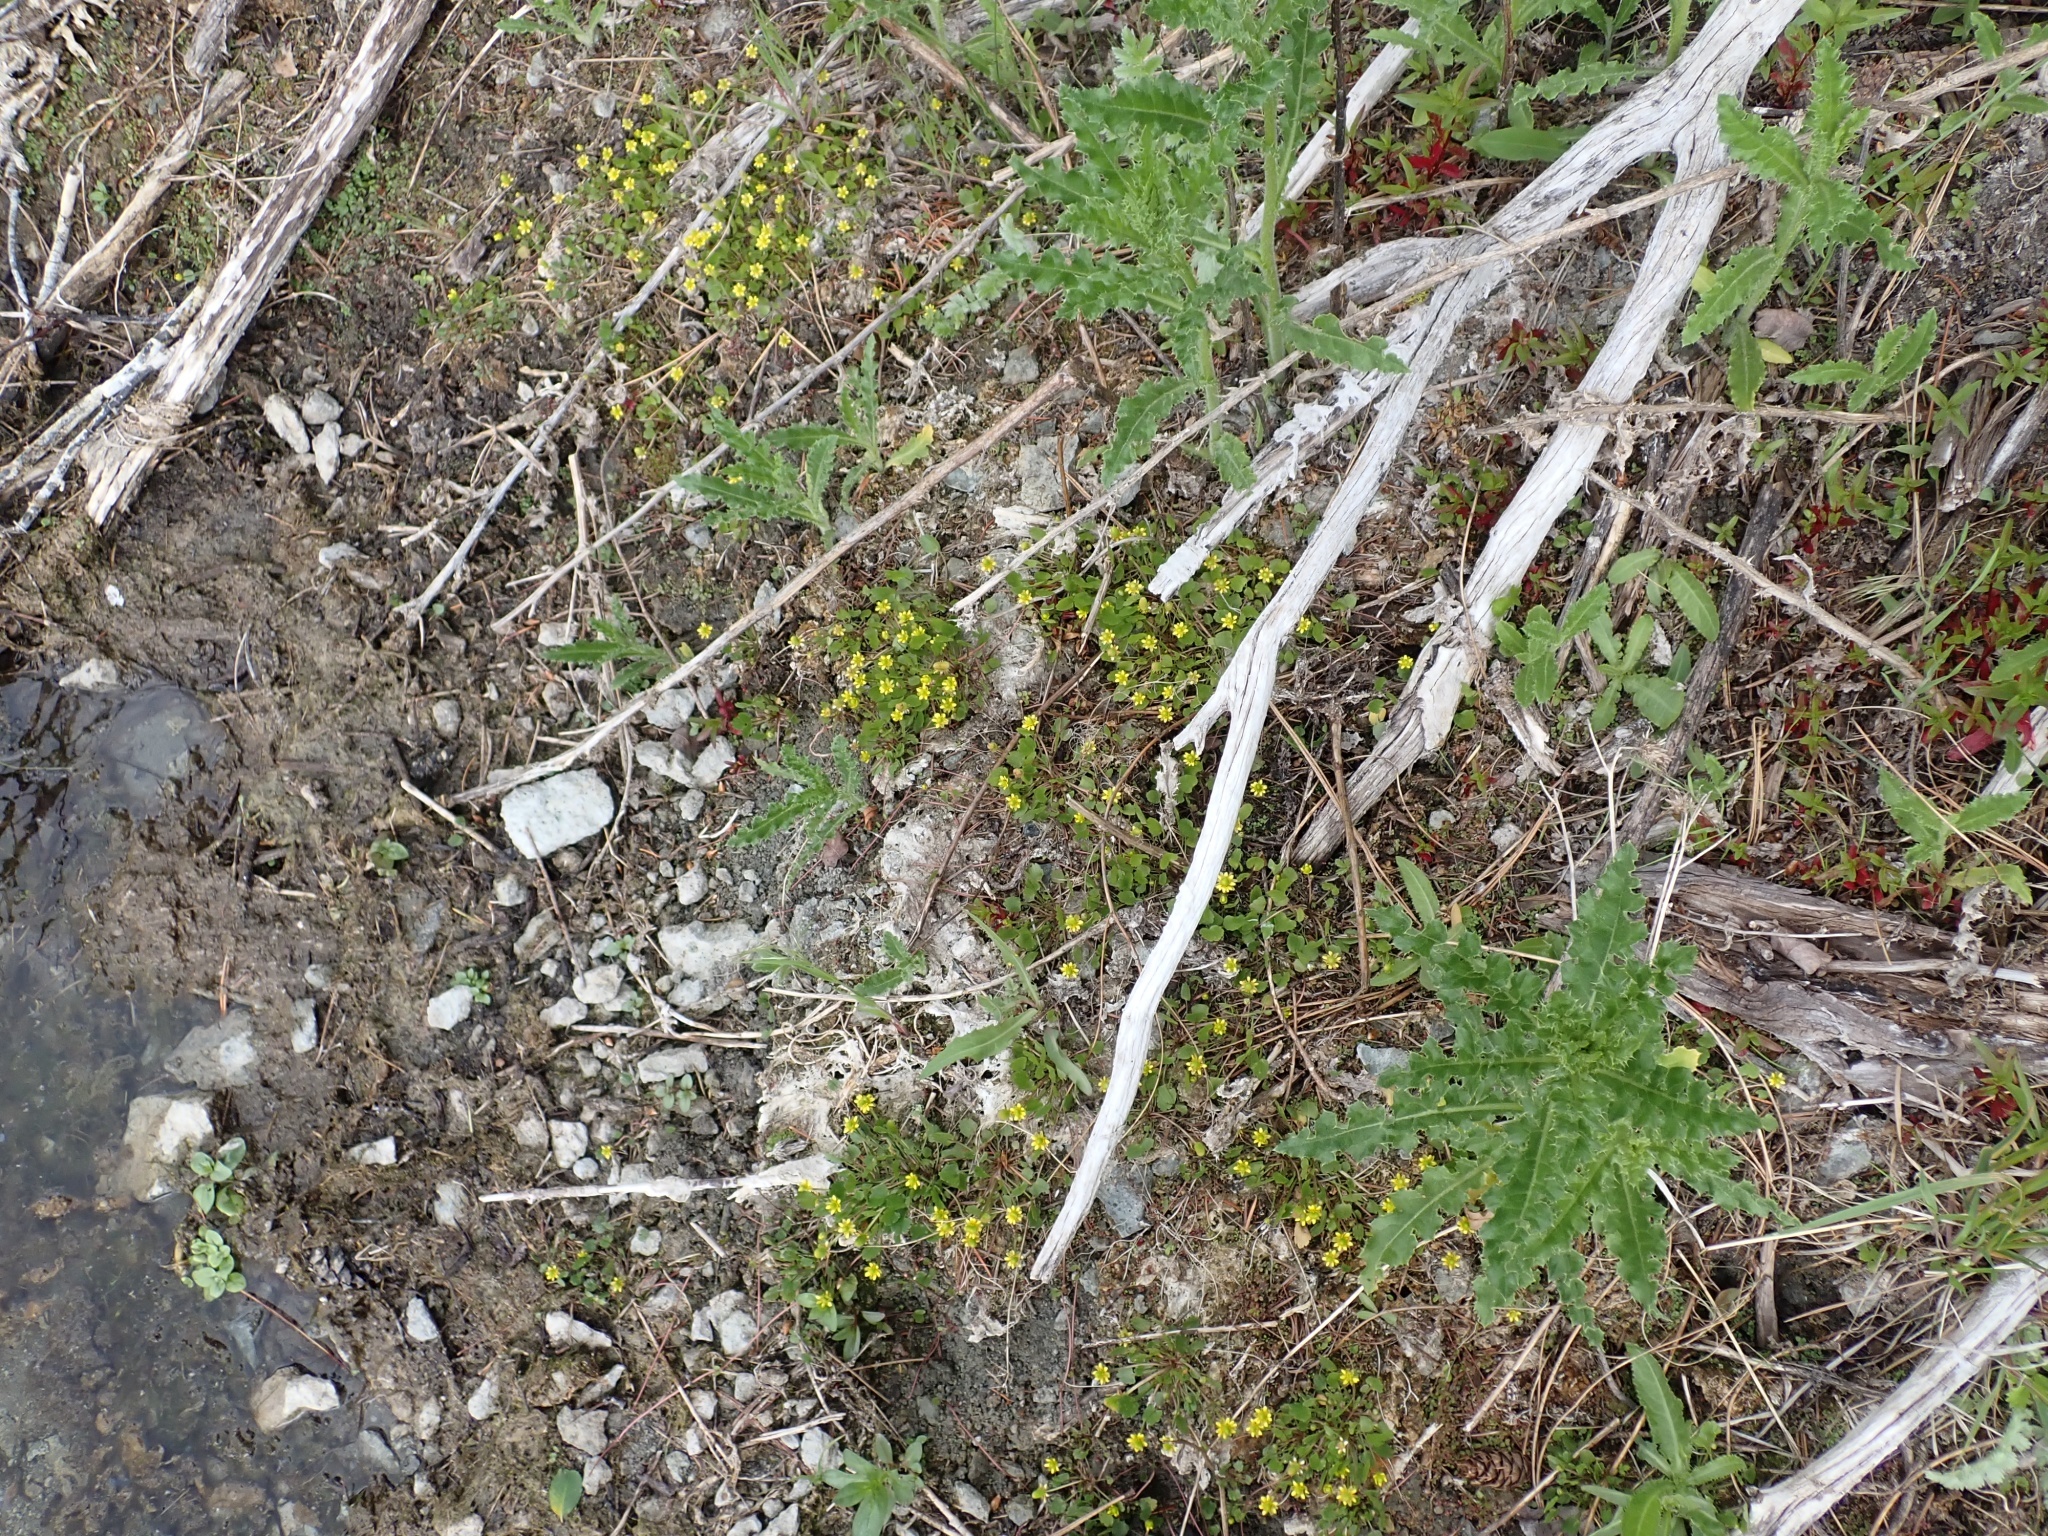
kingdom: Plantae
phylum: Tracheophyta
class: Magnoliopsida
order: Ranunculales
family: Ranunculaceae
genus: Halerpestes
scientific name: Halerpestes cymbalaria
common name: Seaside crowfoot
